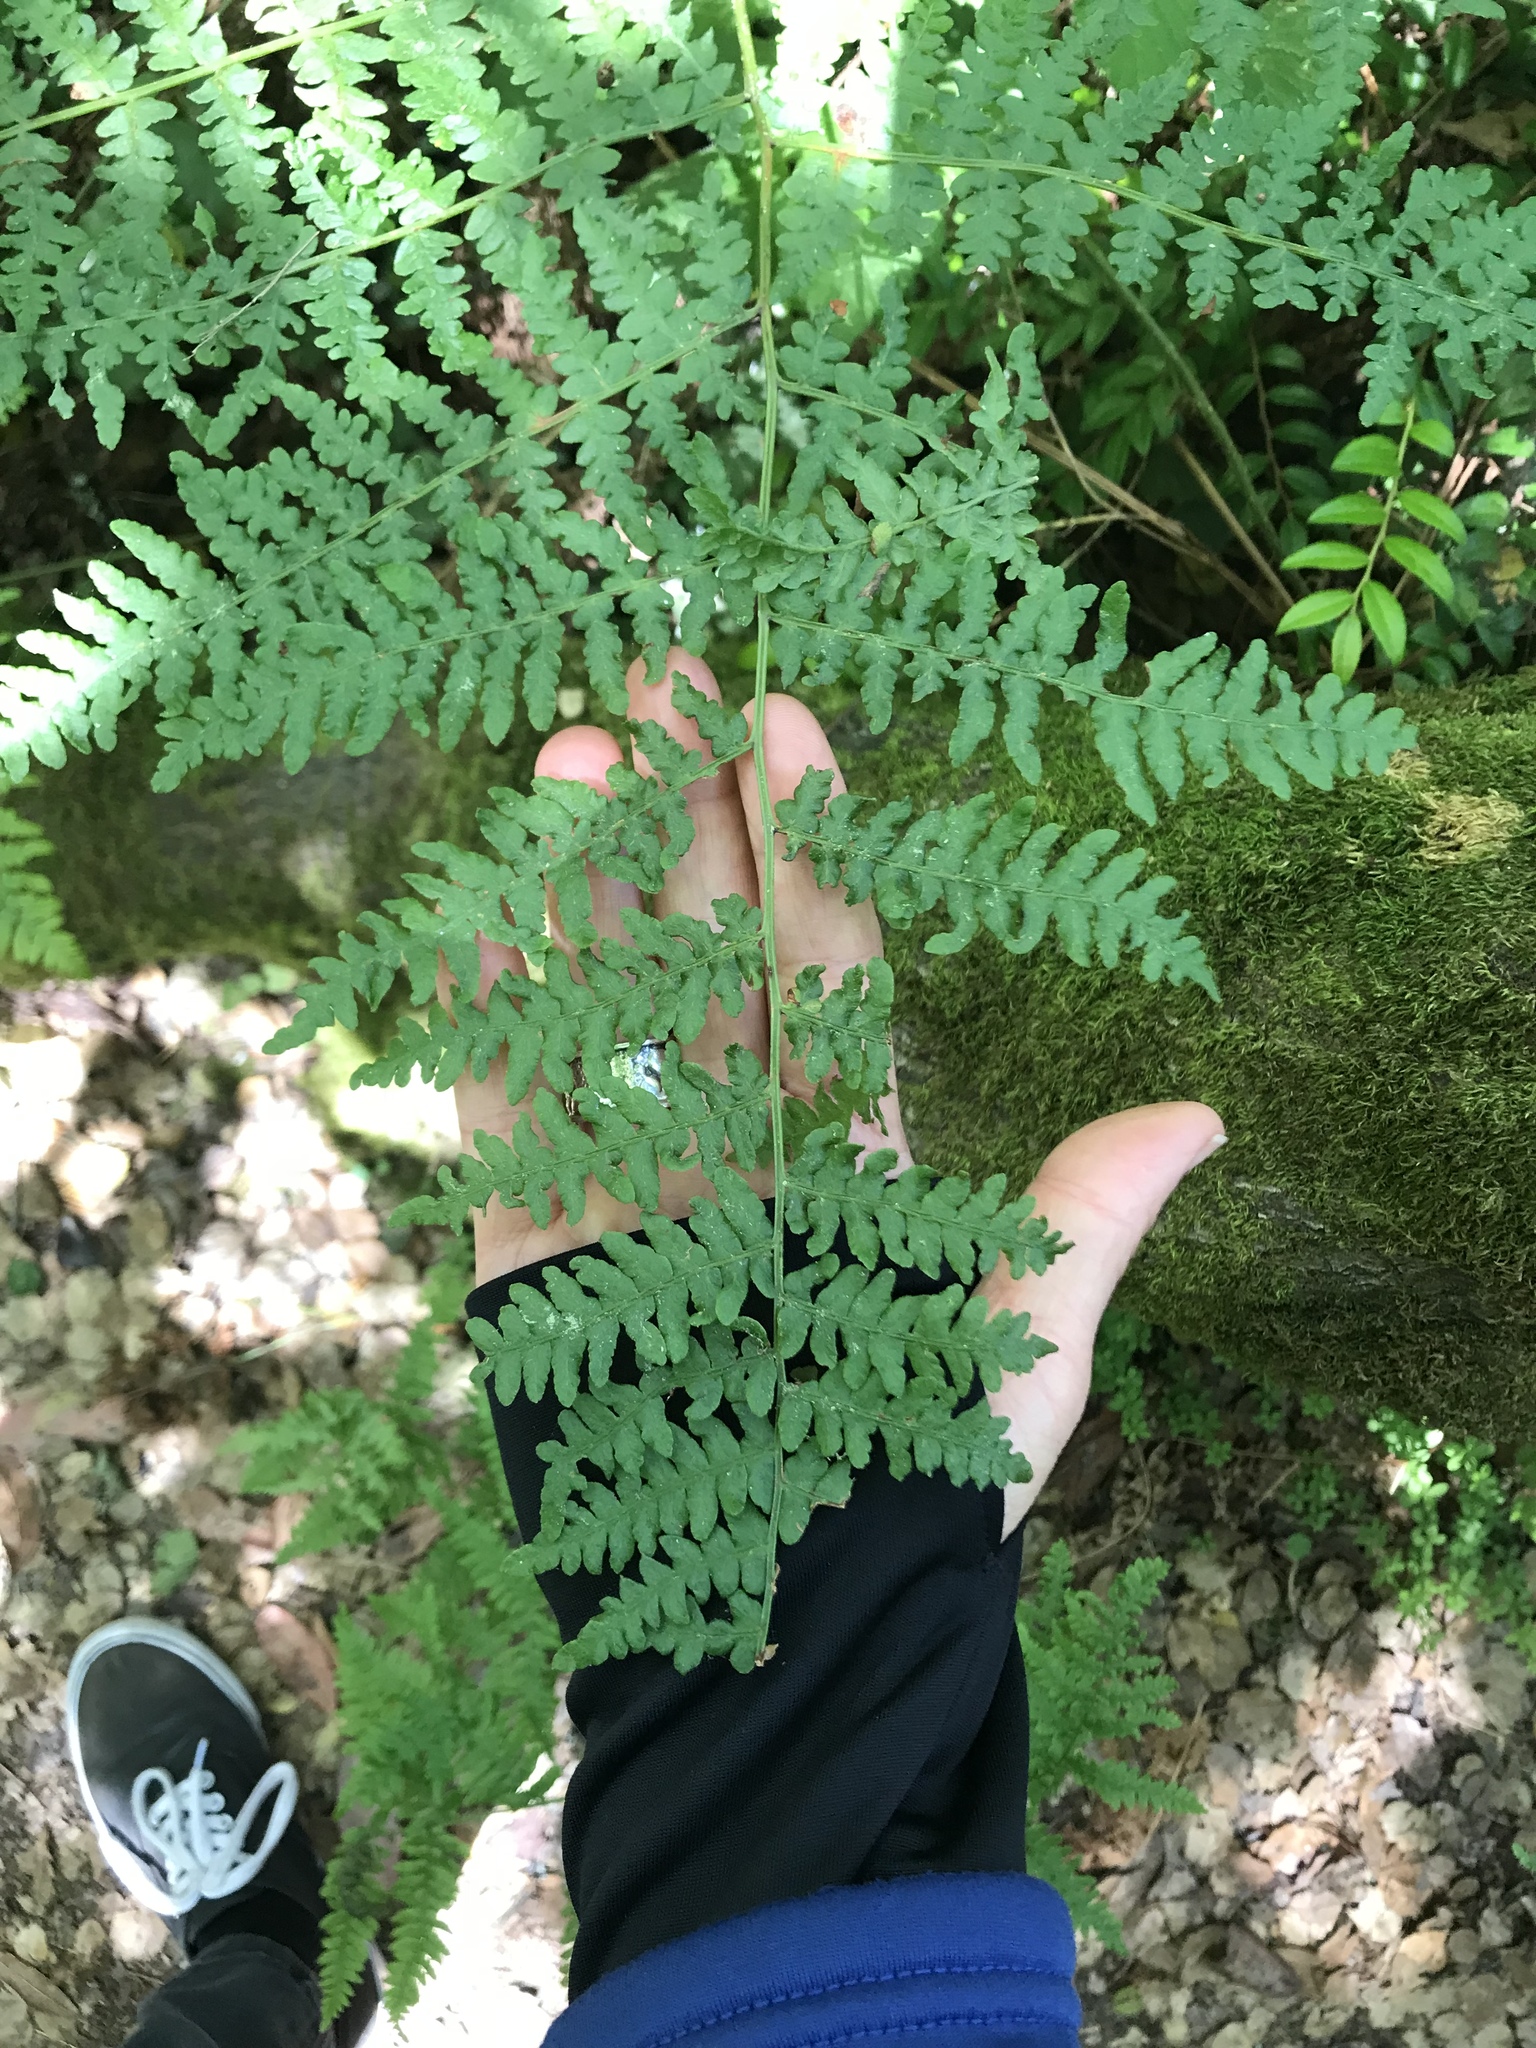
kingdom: Plantae
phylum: Tracheophyta
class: Polypodiopsida
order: Polypodiales
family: Dennstaedtiaceae
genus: Pteridium
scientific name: Pteridium aquilinum
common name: Bracken
